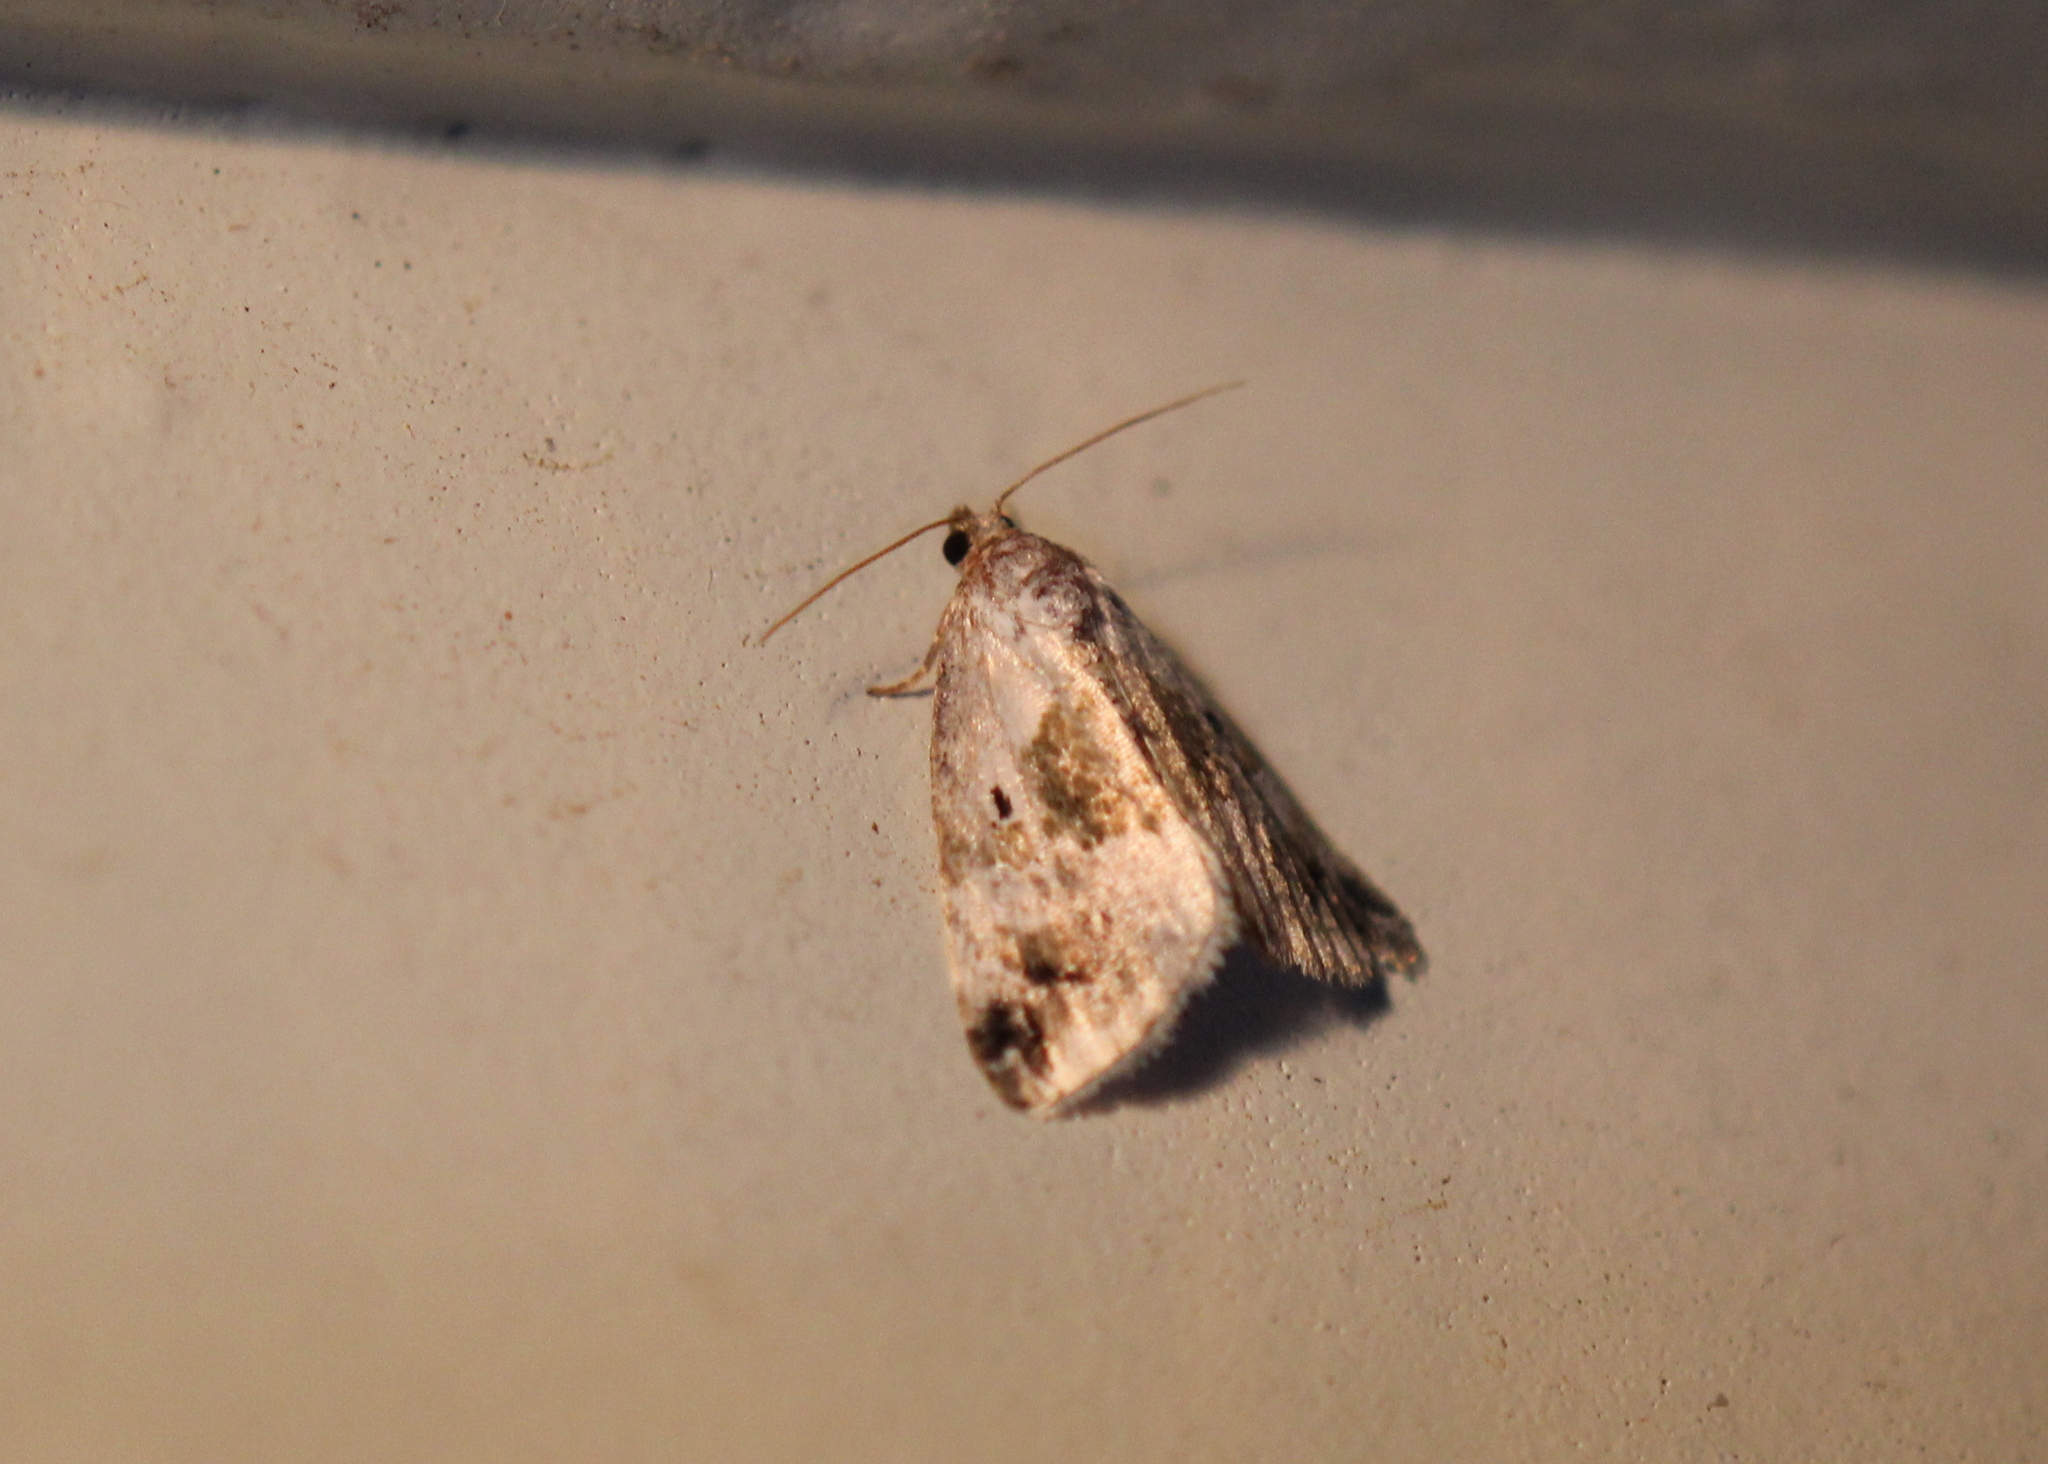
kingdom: Animalia
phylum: Arthropoda
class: Insecta
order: Lepidoptera
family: Noctuidae
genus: Maliattha
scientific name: Maliattha synochitis
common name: Black-dotted glyph
